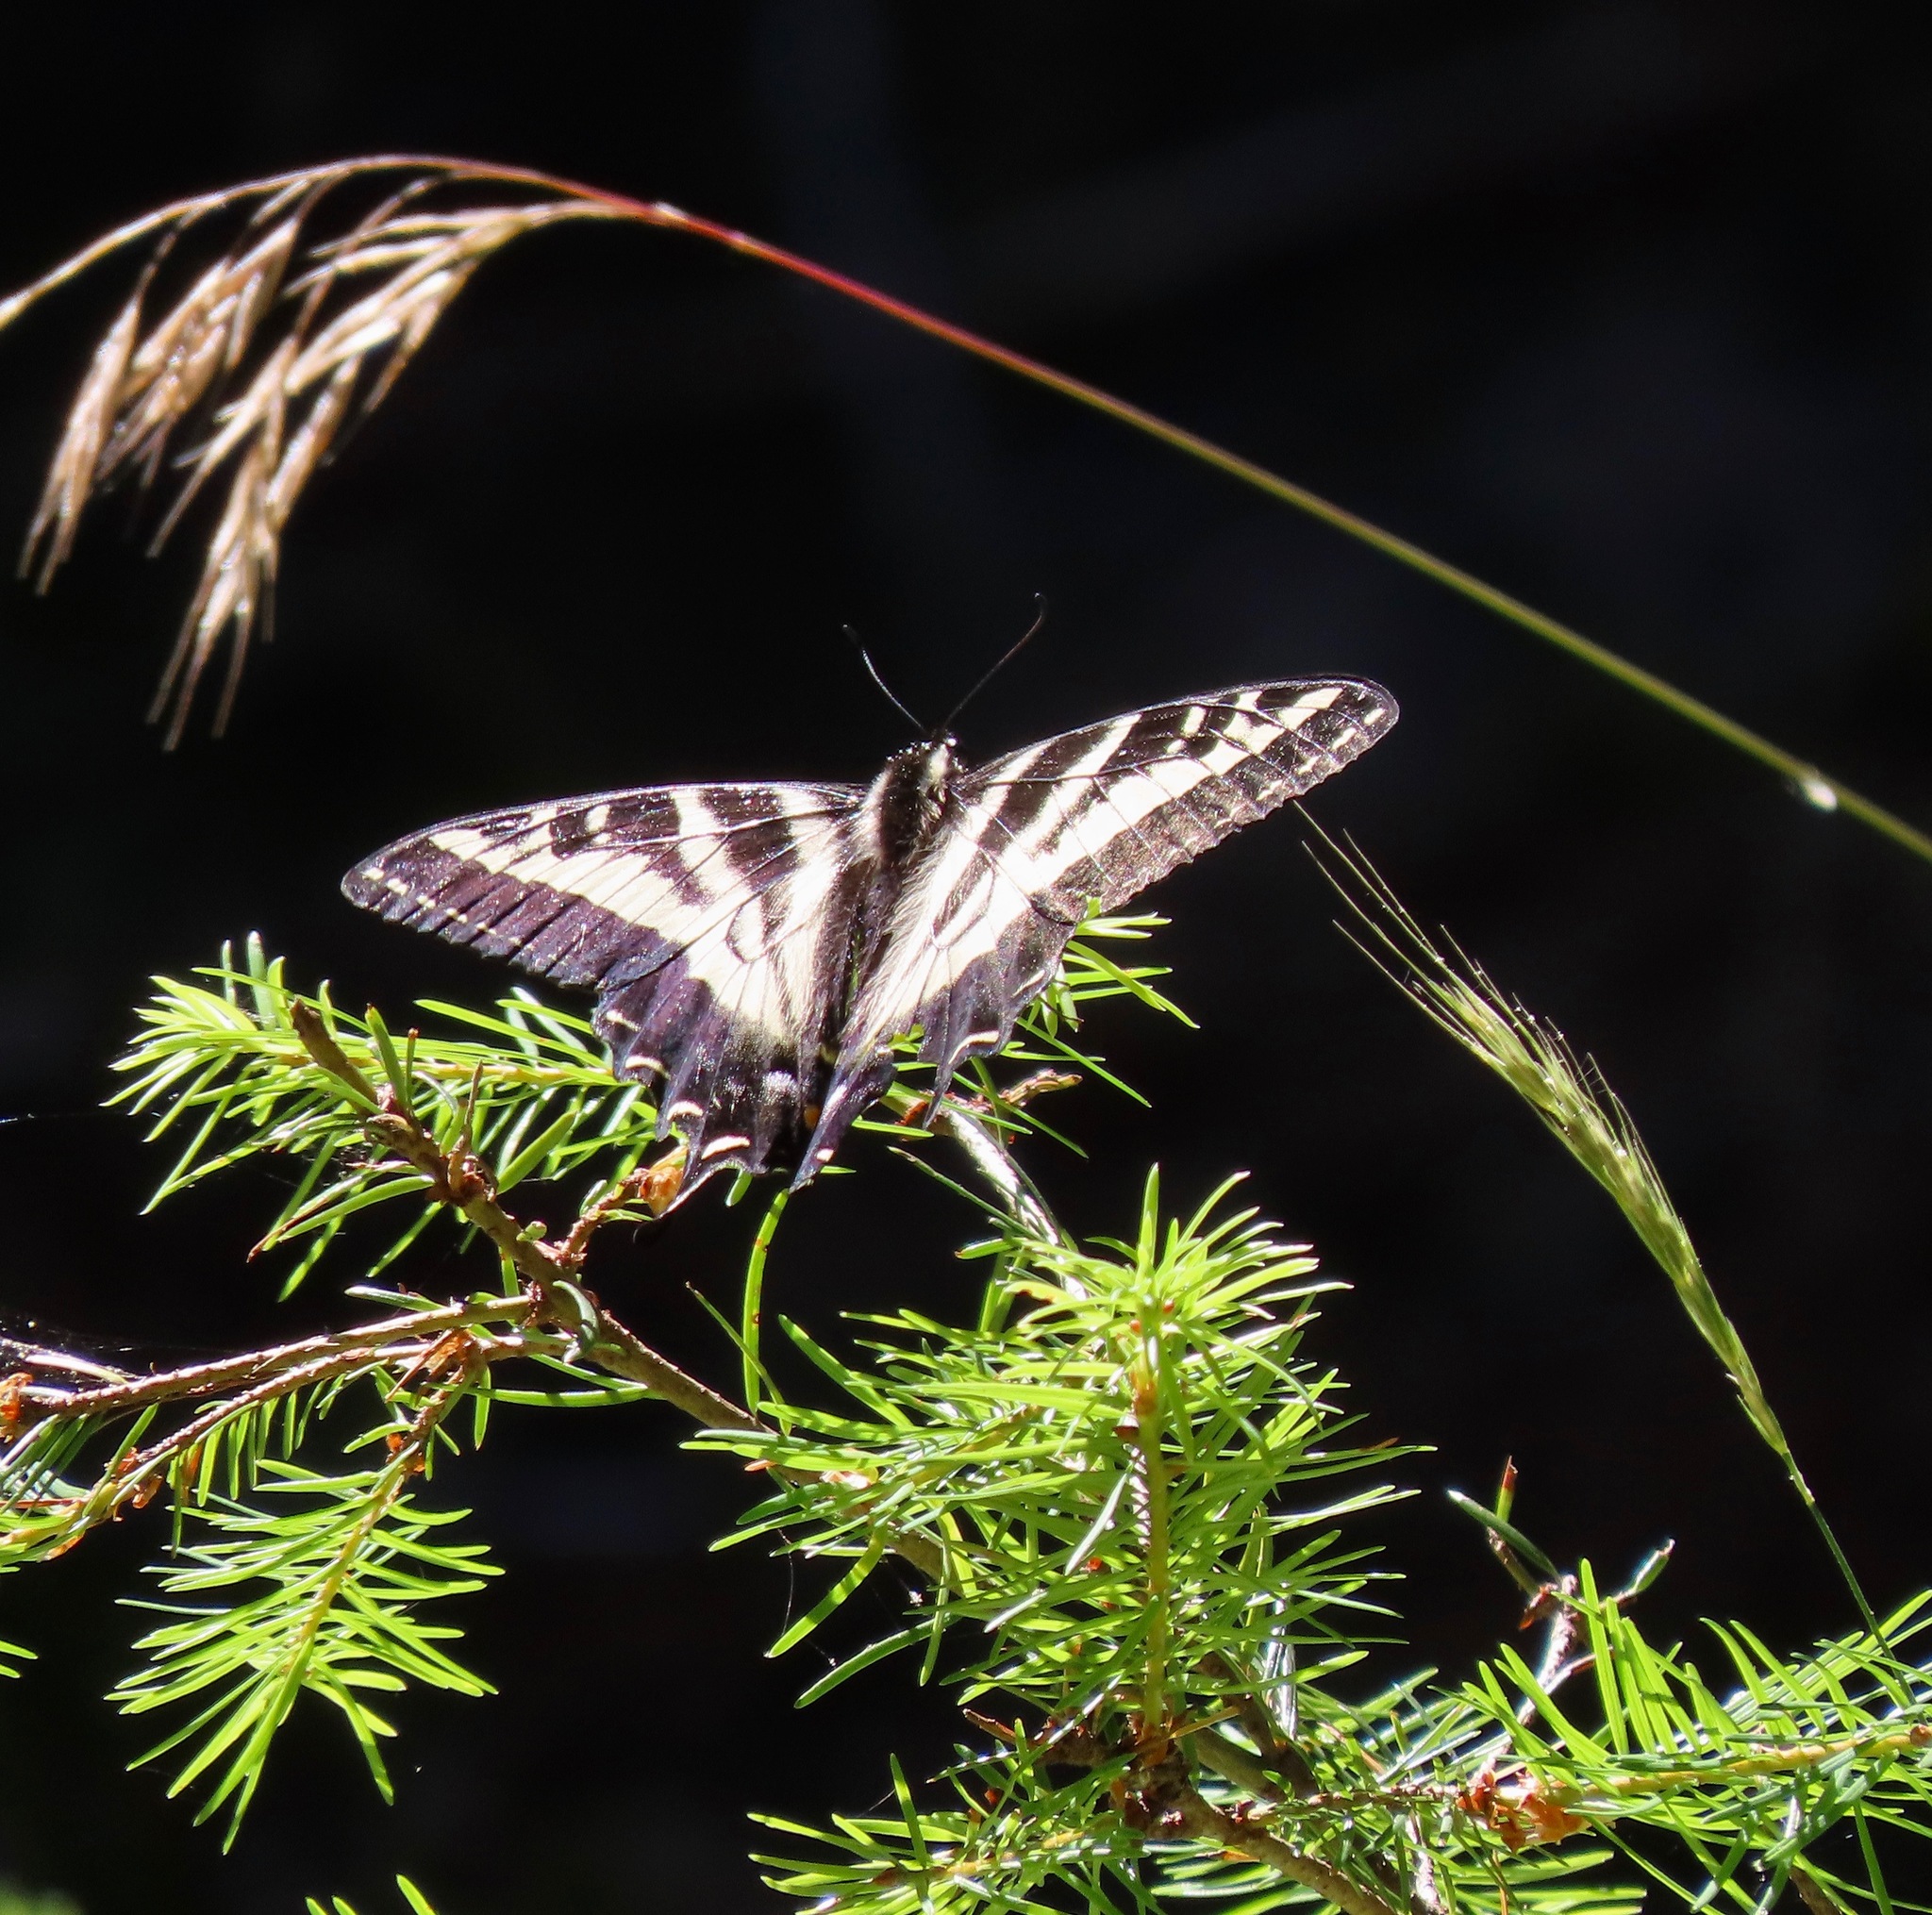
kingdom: Animalia
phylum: Arthropoda
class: Insecta
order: Lepidoptera
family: Papilionidae
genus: Papilio
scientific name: Papilio eurymedon
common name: Pale tiger swallowtail
